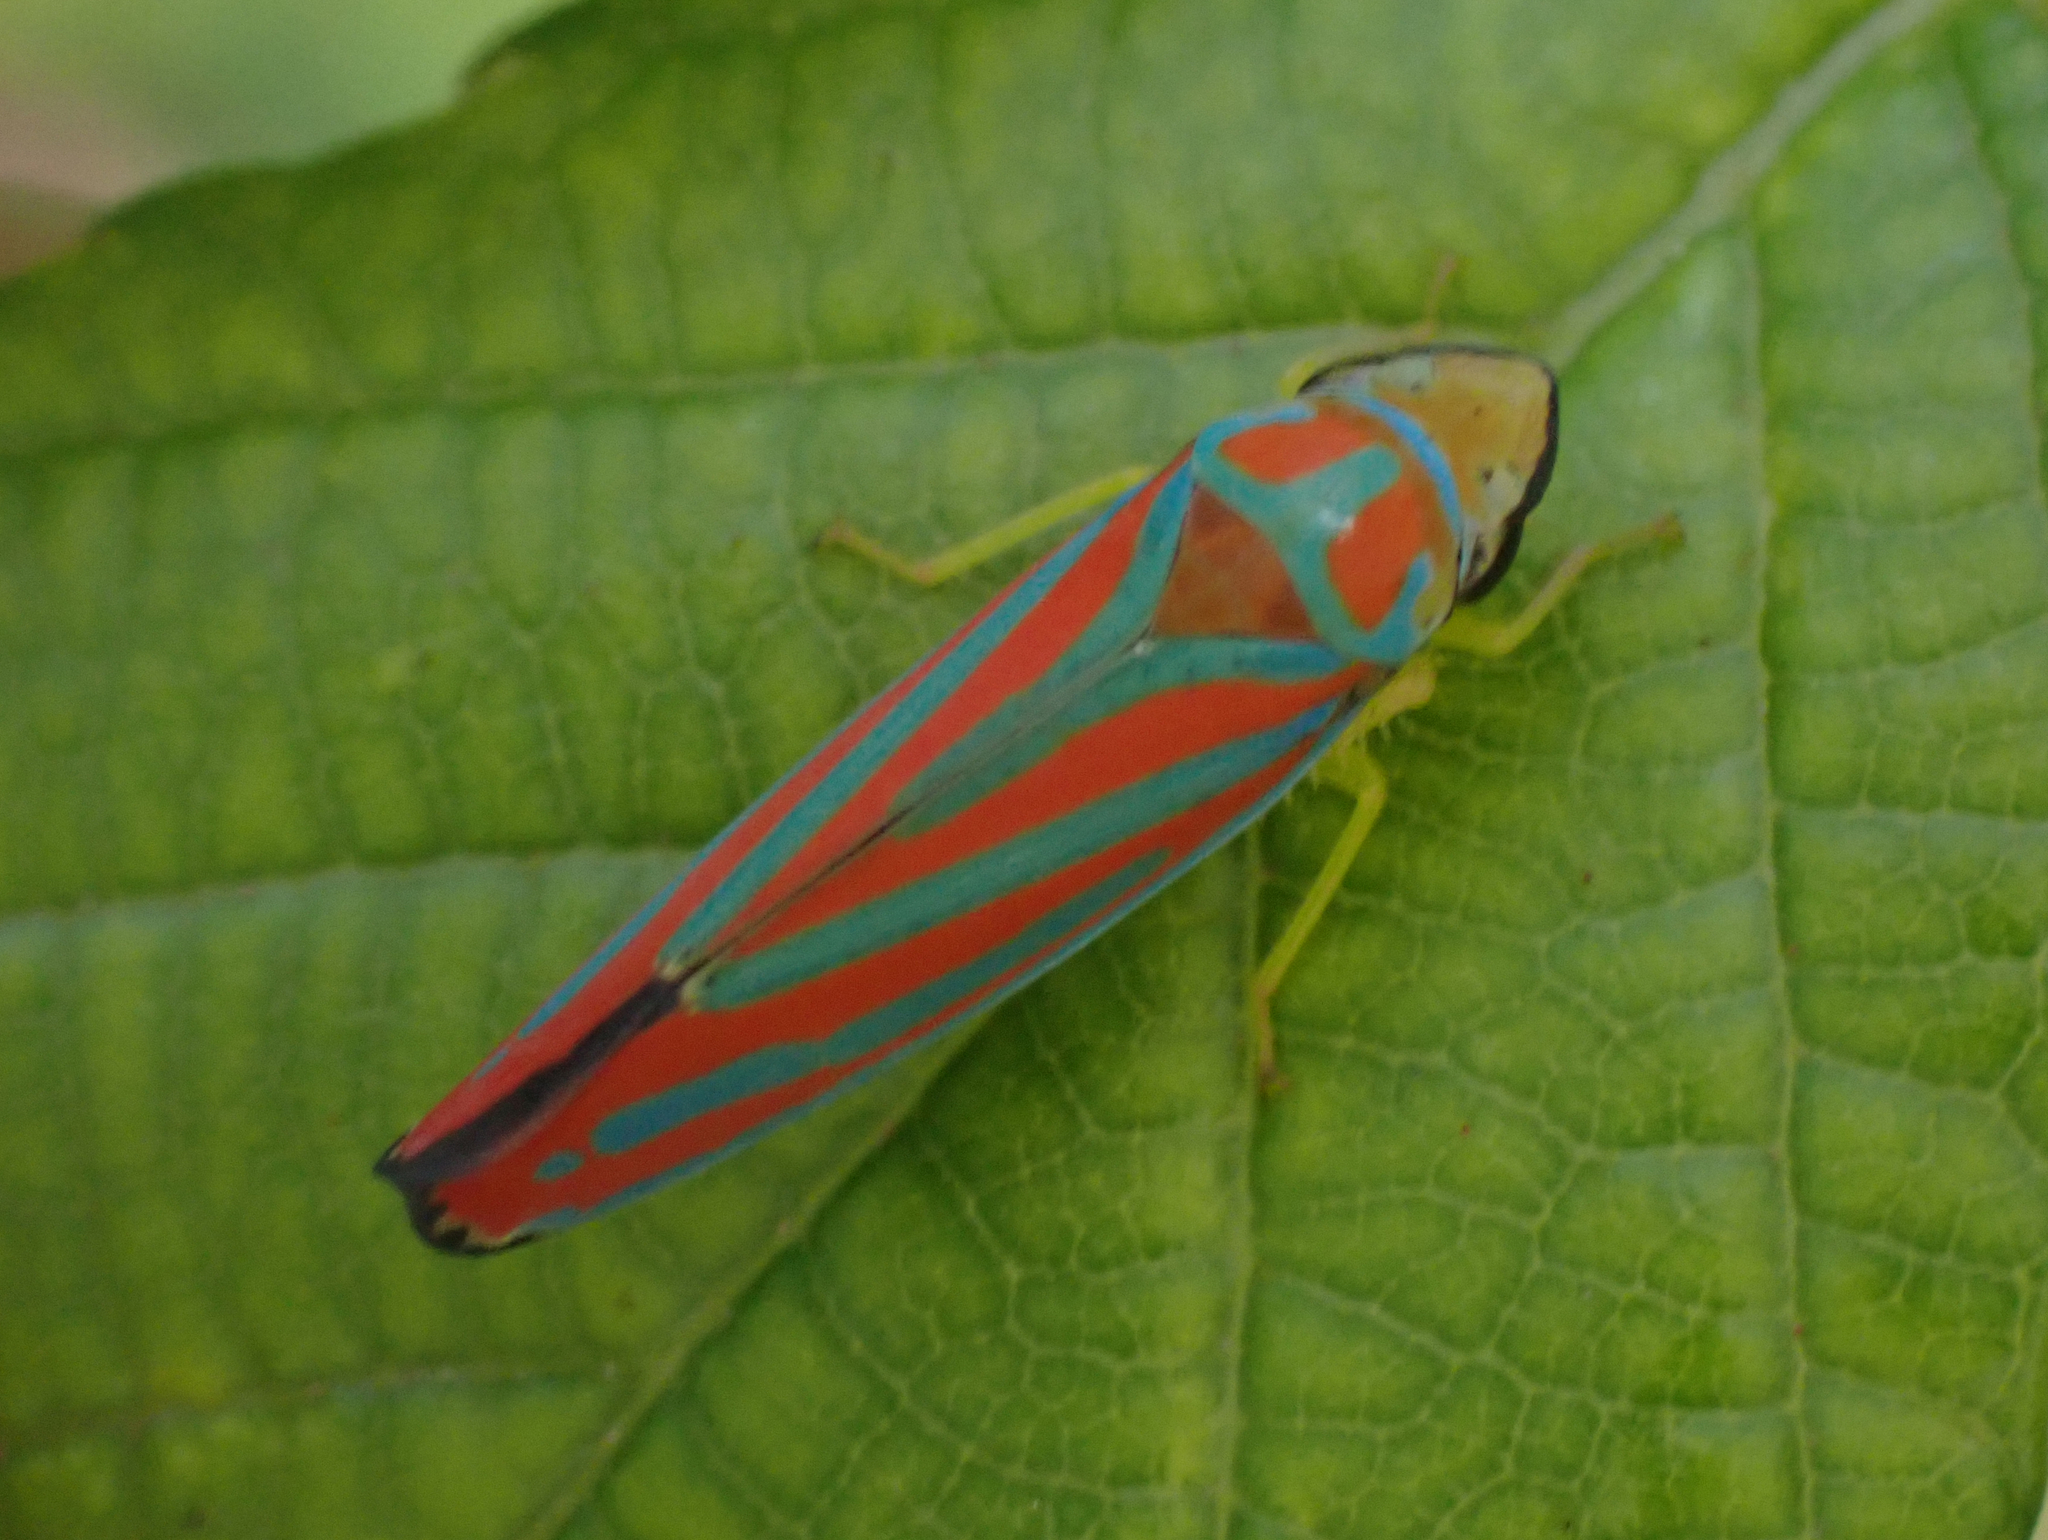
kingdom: Animalia
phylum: Arthropoda
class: Insecta
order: Hemiptera
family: Cicadellidae
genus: Graphocephala
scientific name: Graphocephala coccinea
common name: Candy-striped leafhopper
